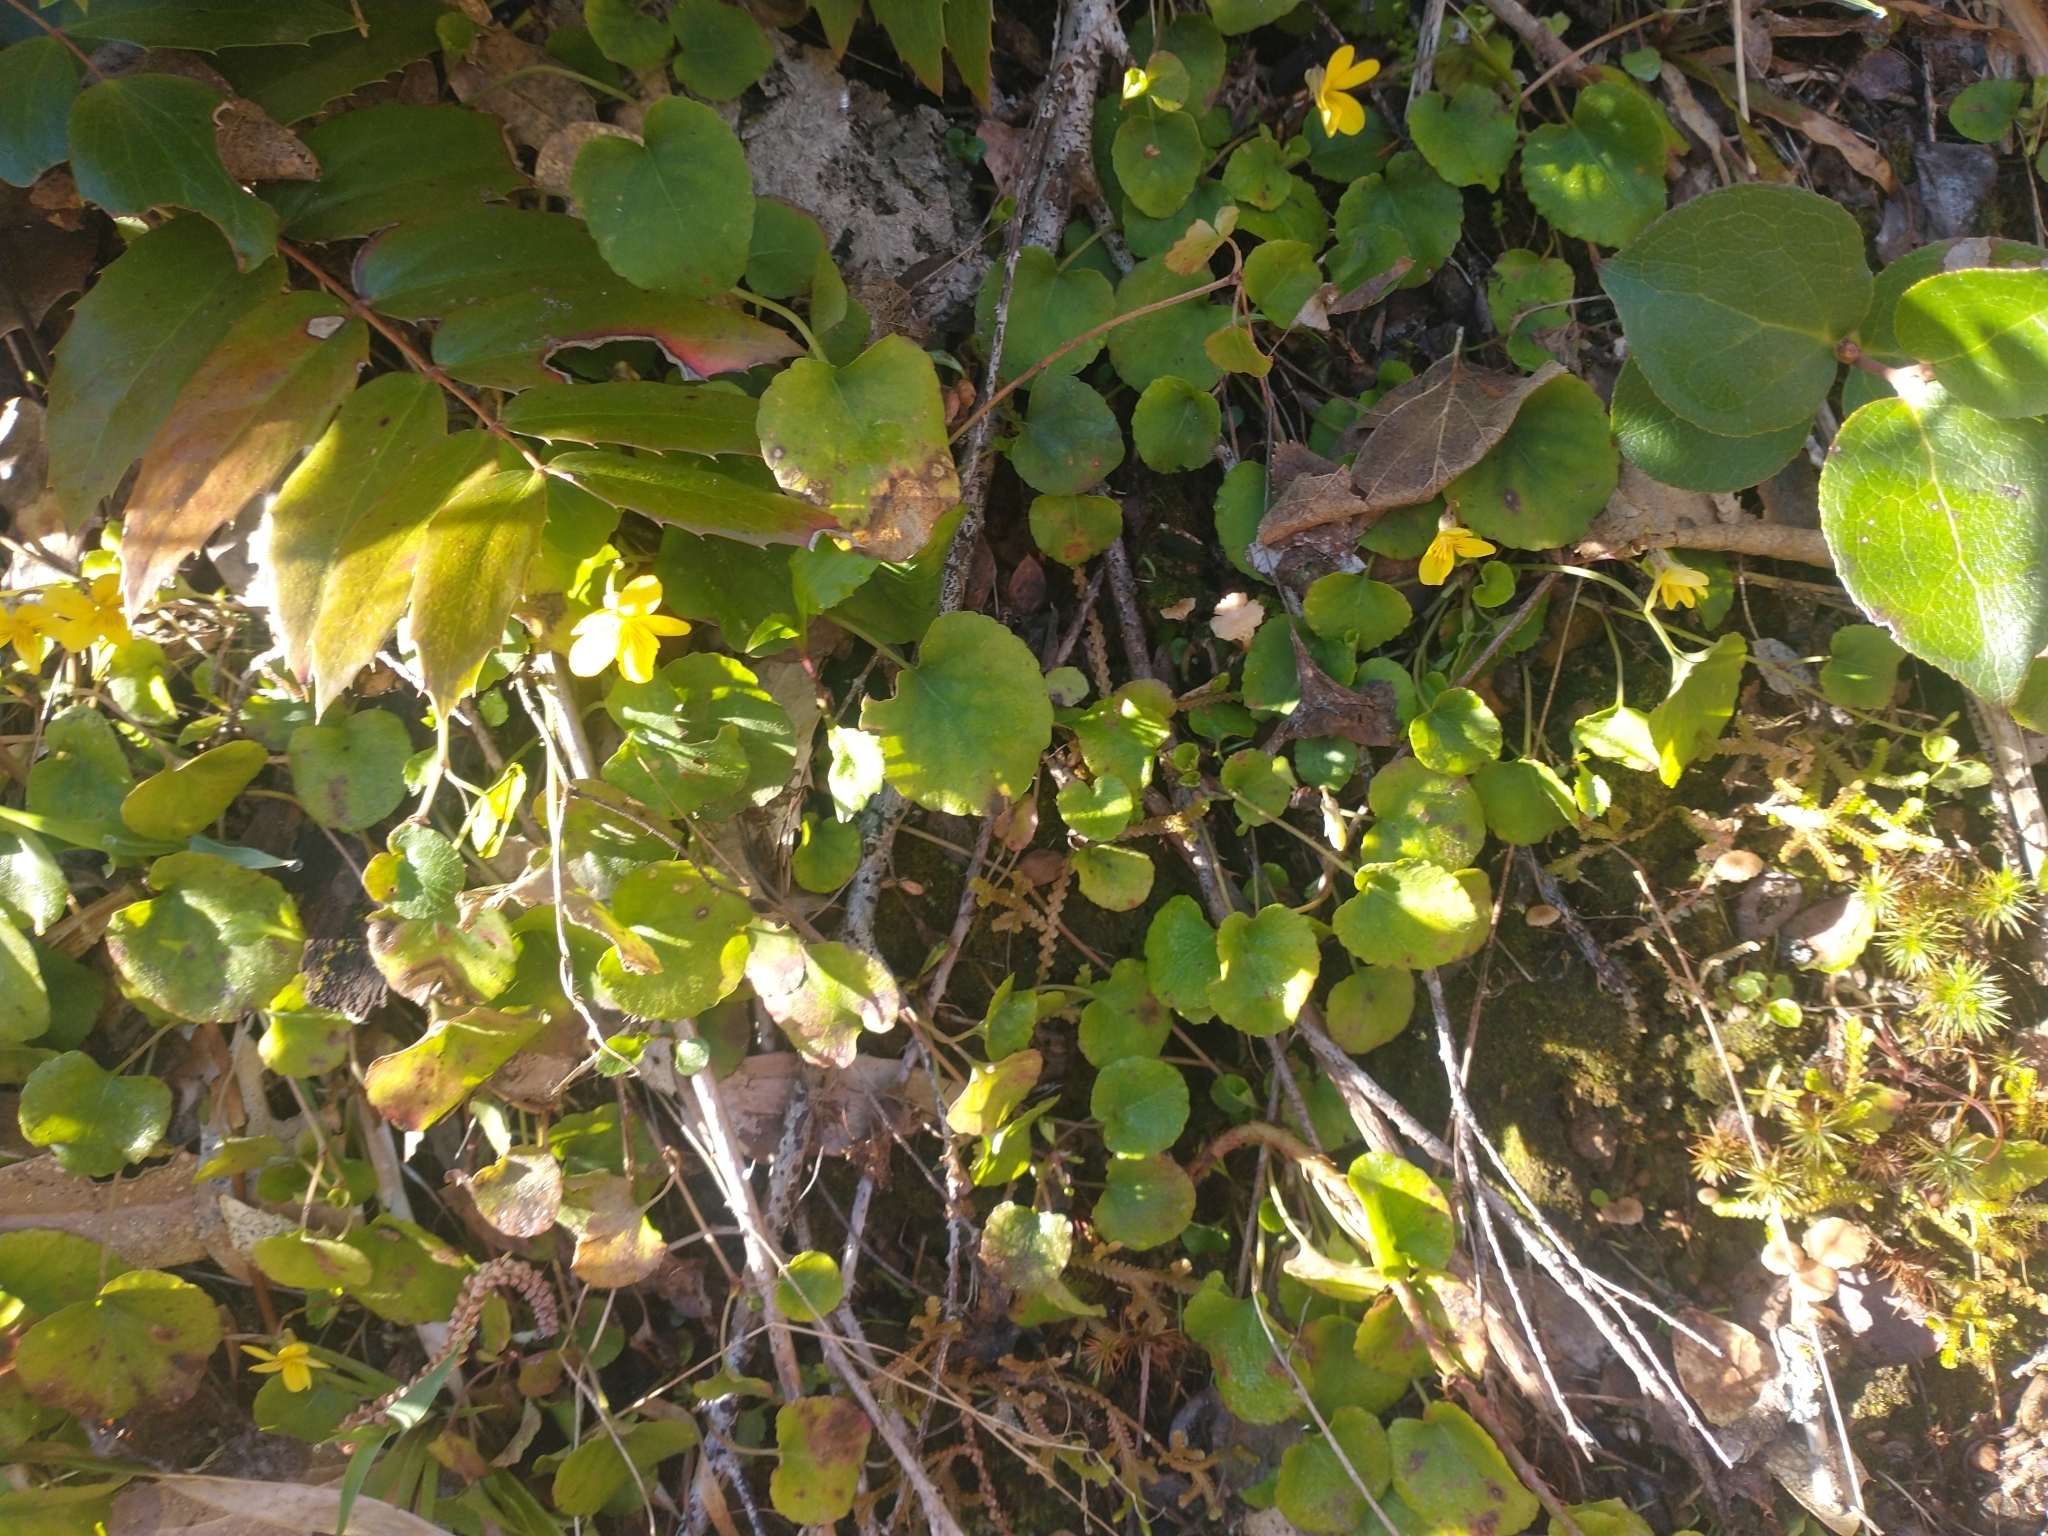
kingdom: Plantae
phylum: Tracheophyta
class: Magnoliopsida
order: Malpighiales
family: Violaceae
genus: Viola
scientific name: Viola sempervirens
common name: Evergreen violet
